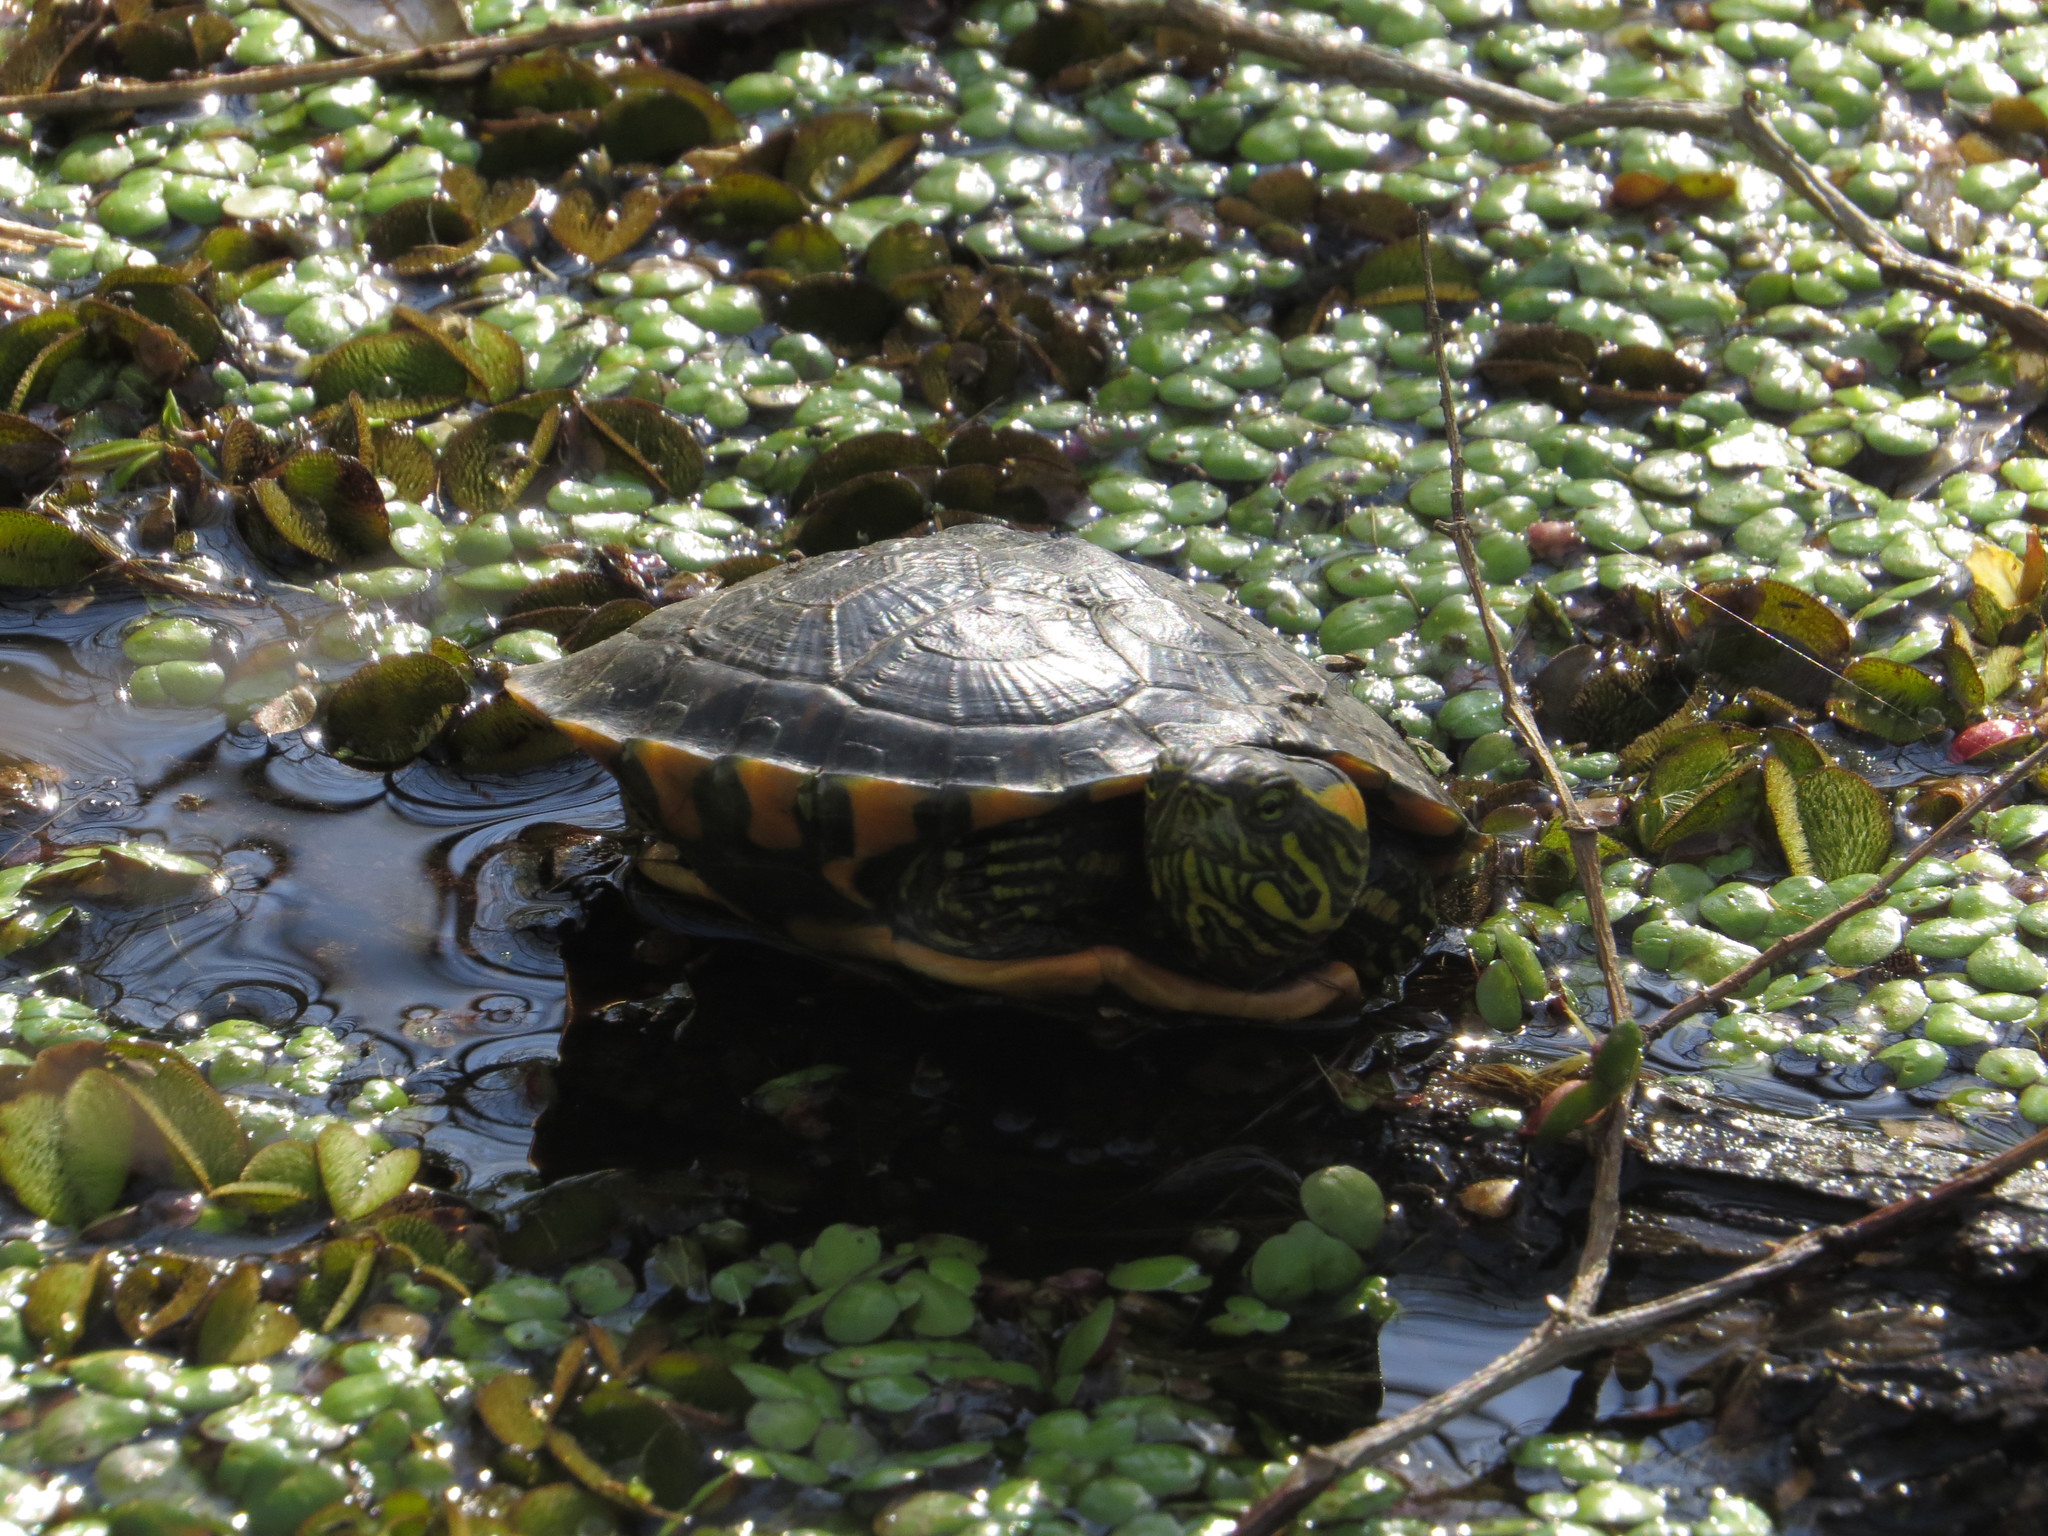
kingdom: Animalia
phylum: Chordata
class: Testudines
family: Emydidae
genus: Trachemys
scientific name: Trachemys dorbigni
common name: Black-bellied slider
